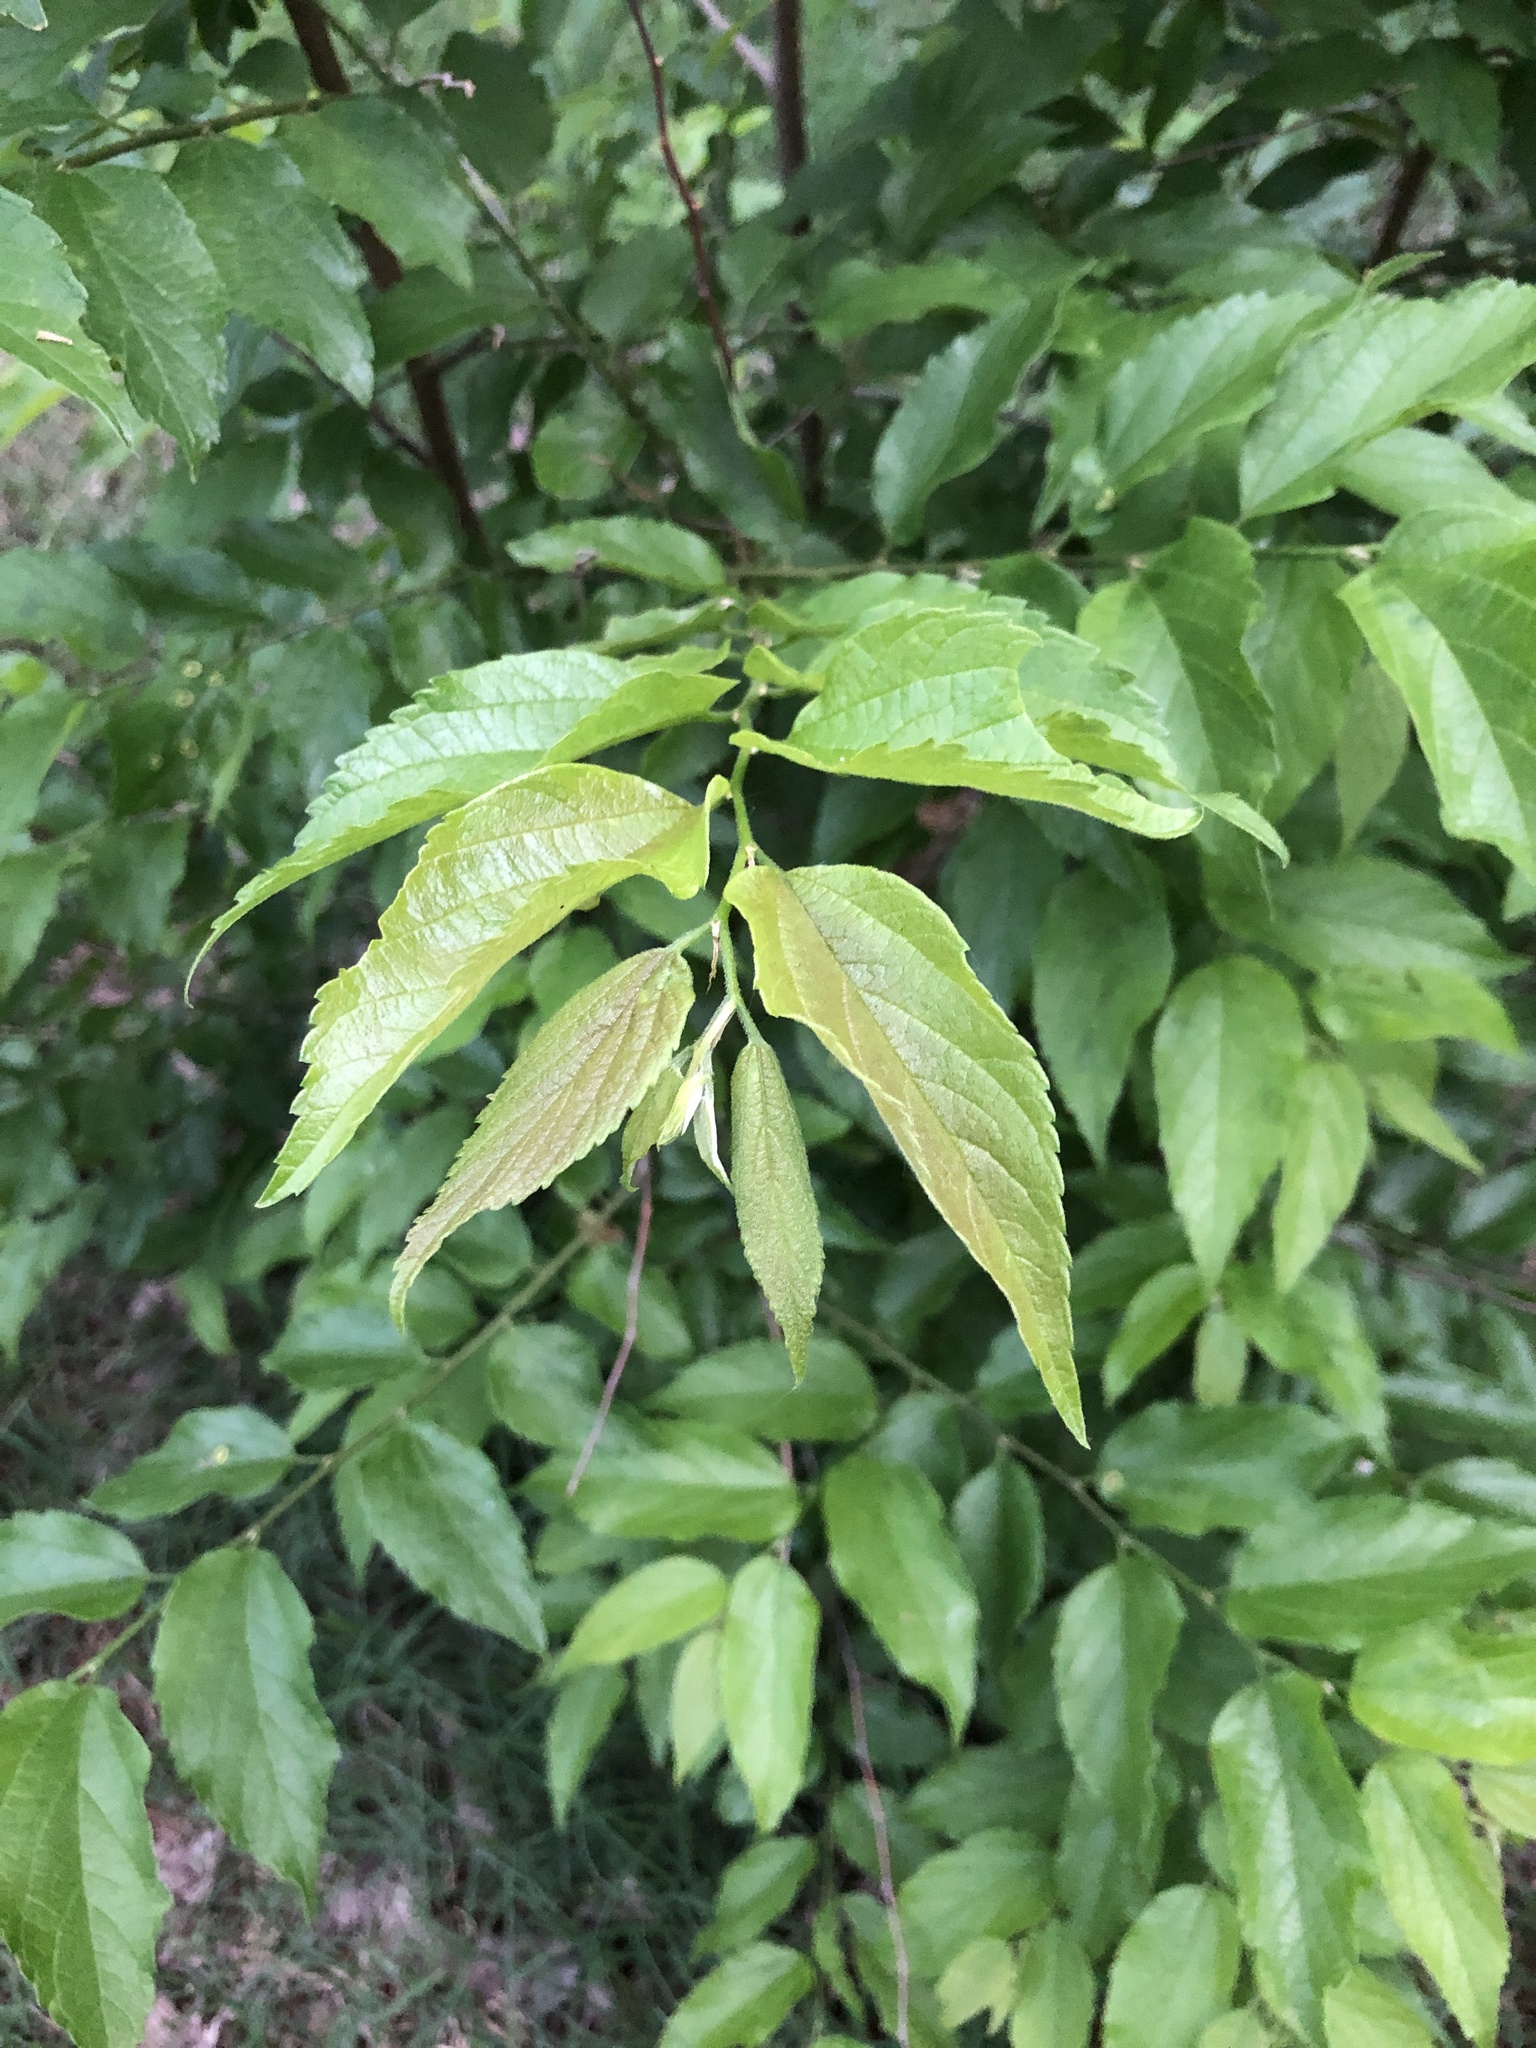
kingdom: Plantae
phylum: Tracheophyta
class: Magnoliopsida
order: Rosales
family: Cannabaceae
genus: Celtis
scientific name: Celtis laevigata
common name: Sugarberry
